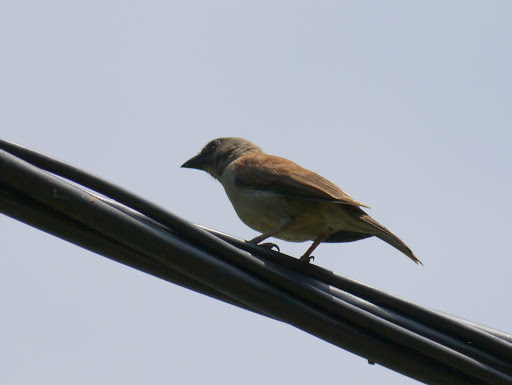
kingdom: Animalia
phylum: Chordata
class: Aves
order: Passeriformes
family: Passeridae
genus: Passer
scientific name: Passer griseus
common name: Northern grey-headed sparrow
